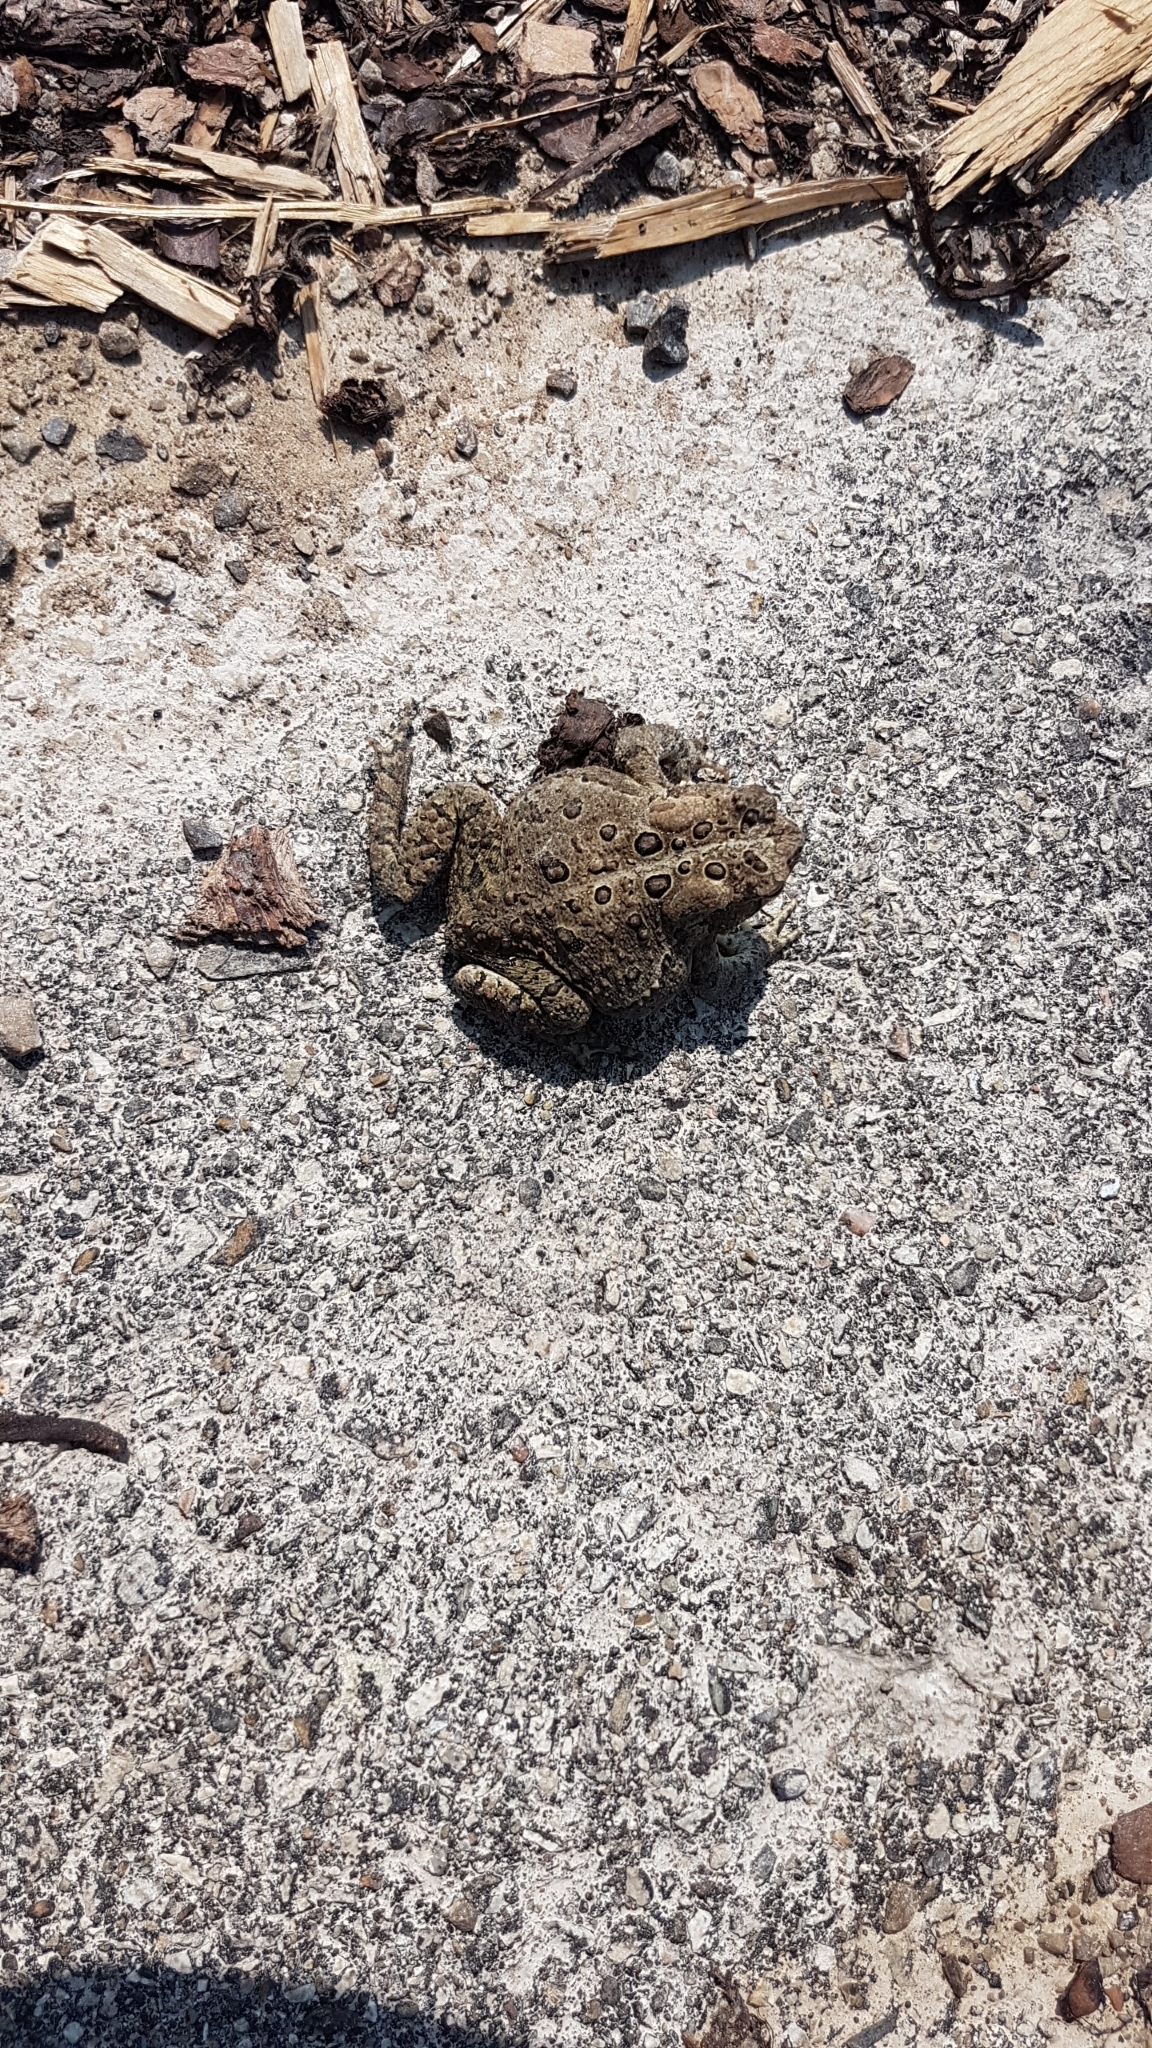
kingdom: Animalia
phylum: Chordata
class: Amphibia
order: Anura
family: Bufonidae
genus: Anaxyrus
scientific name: Anaxyrus americanus
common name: American toad
